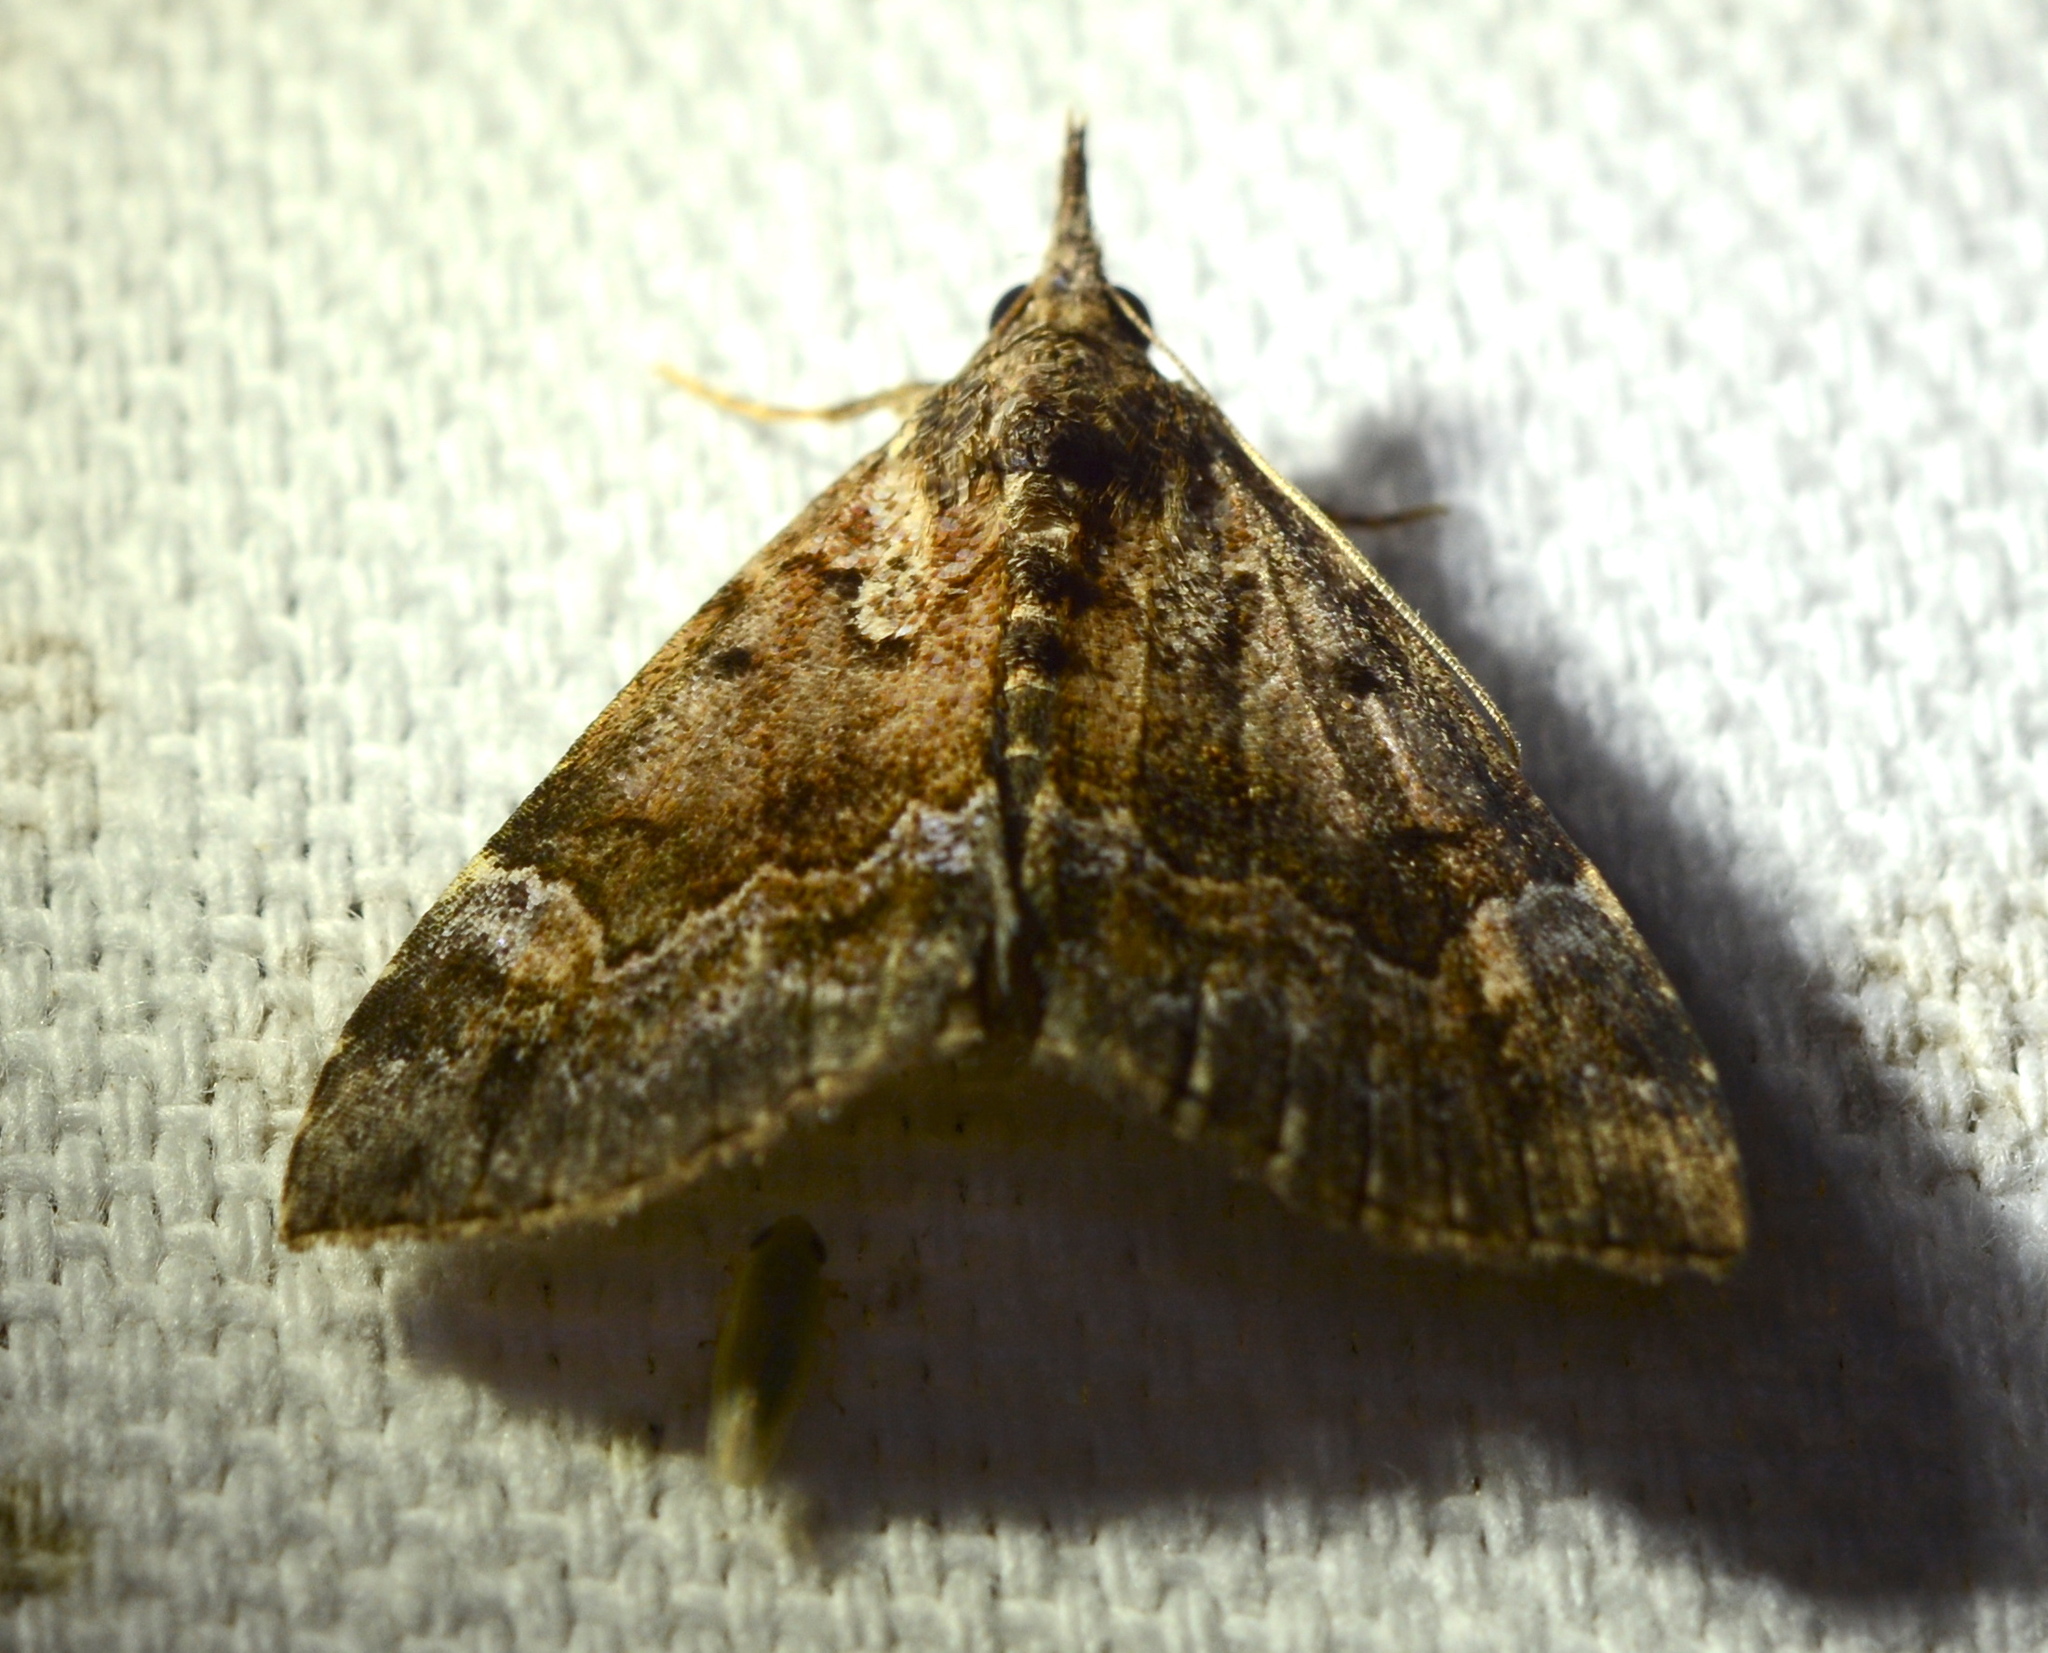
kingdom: Animalia
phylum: Arthropoda
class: Insecta
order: Lepidoptera
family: Erebidae
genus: Hypena
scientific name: Hypena palparia
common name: Mottled bomolocha moth
